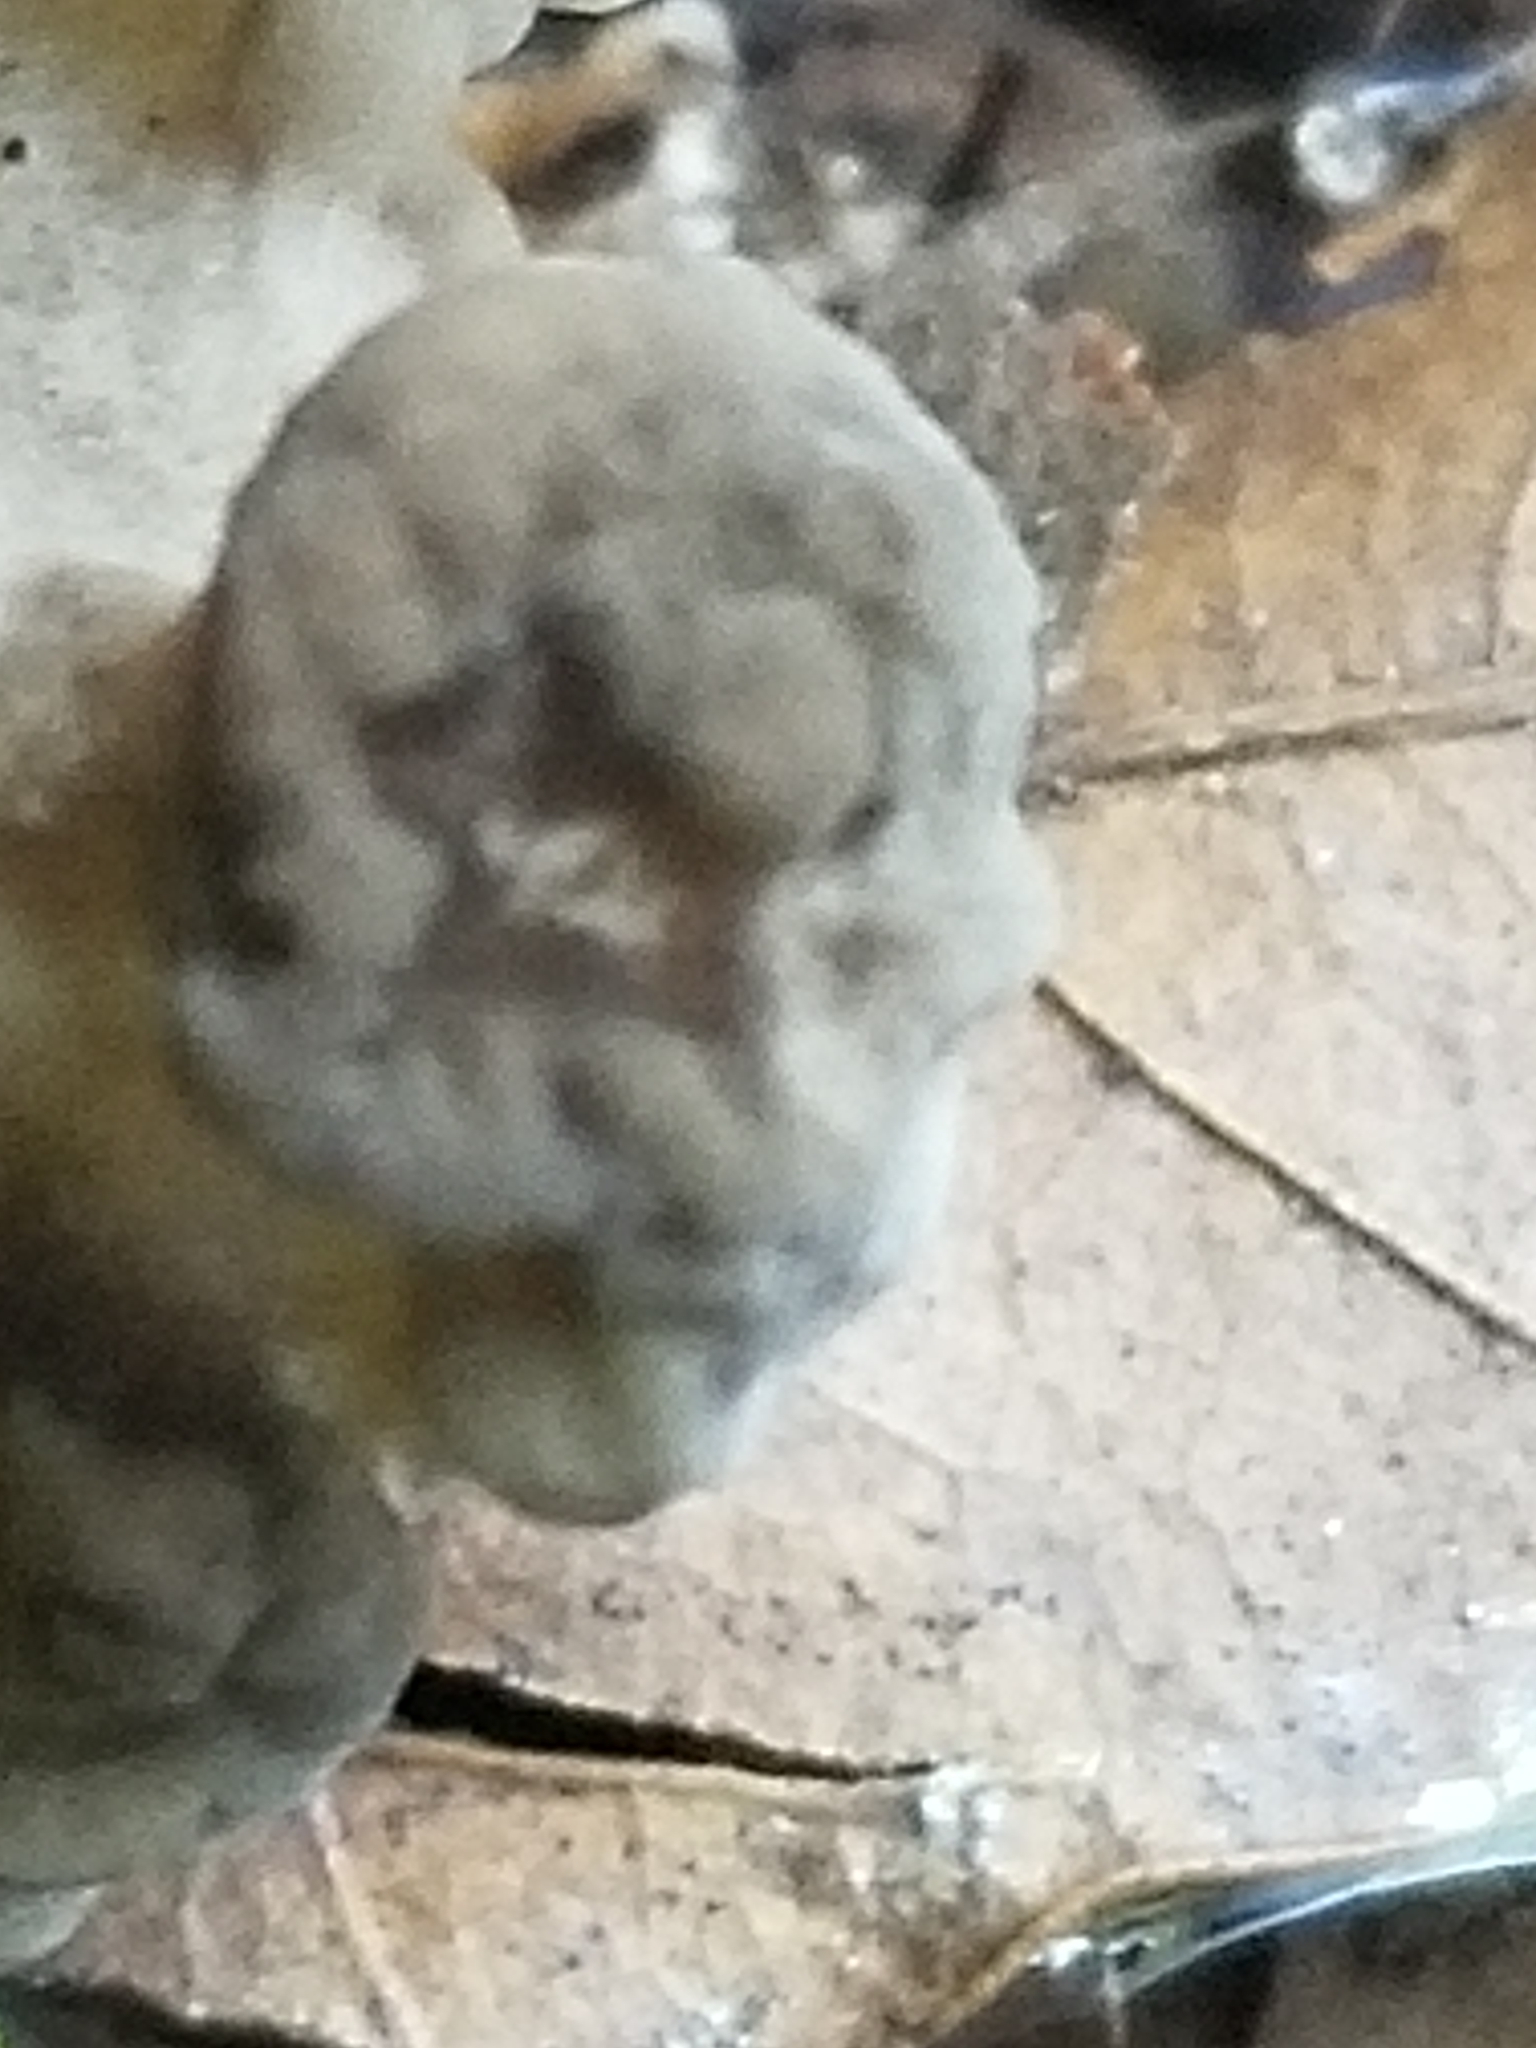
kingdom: Fungi
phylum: Basidiomycota
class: Agaricomycetes
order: Polyporales
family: Grifolaceae
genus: Grifola
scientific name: Grifola frondosa
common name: Hen of the woods
